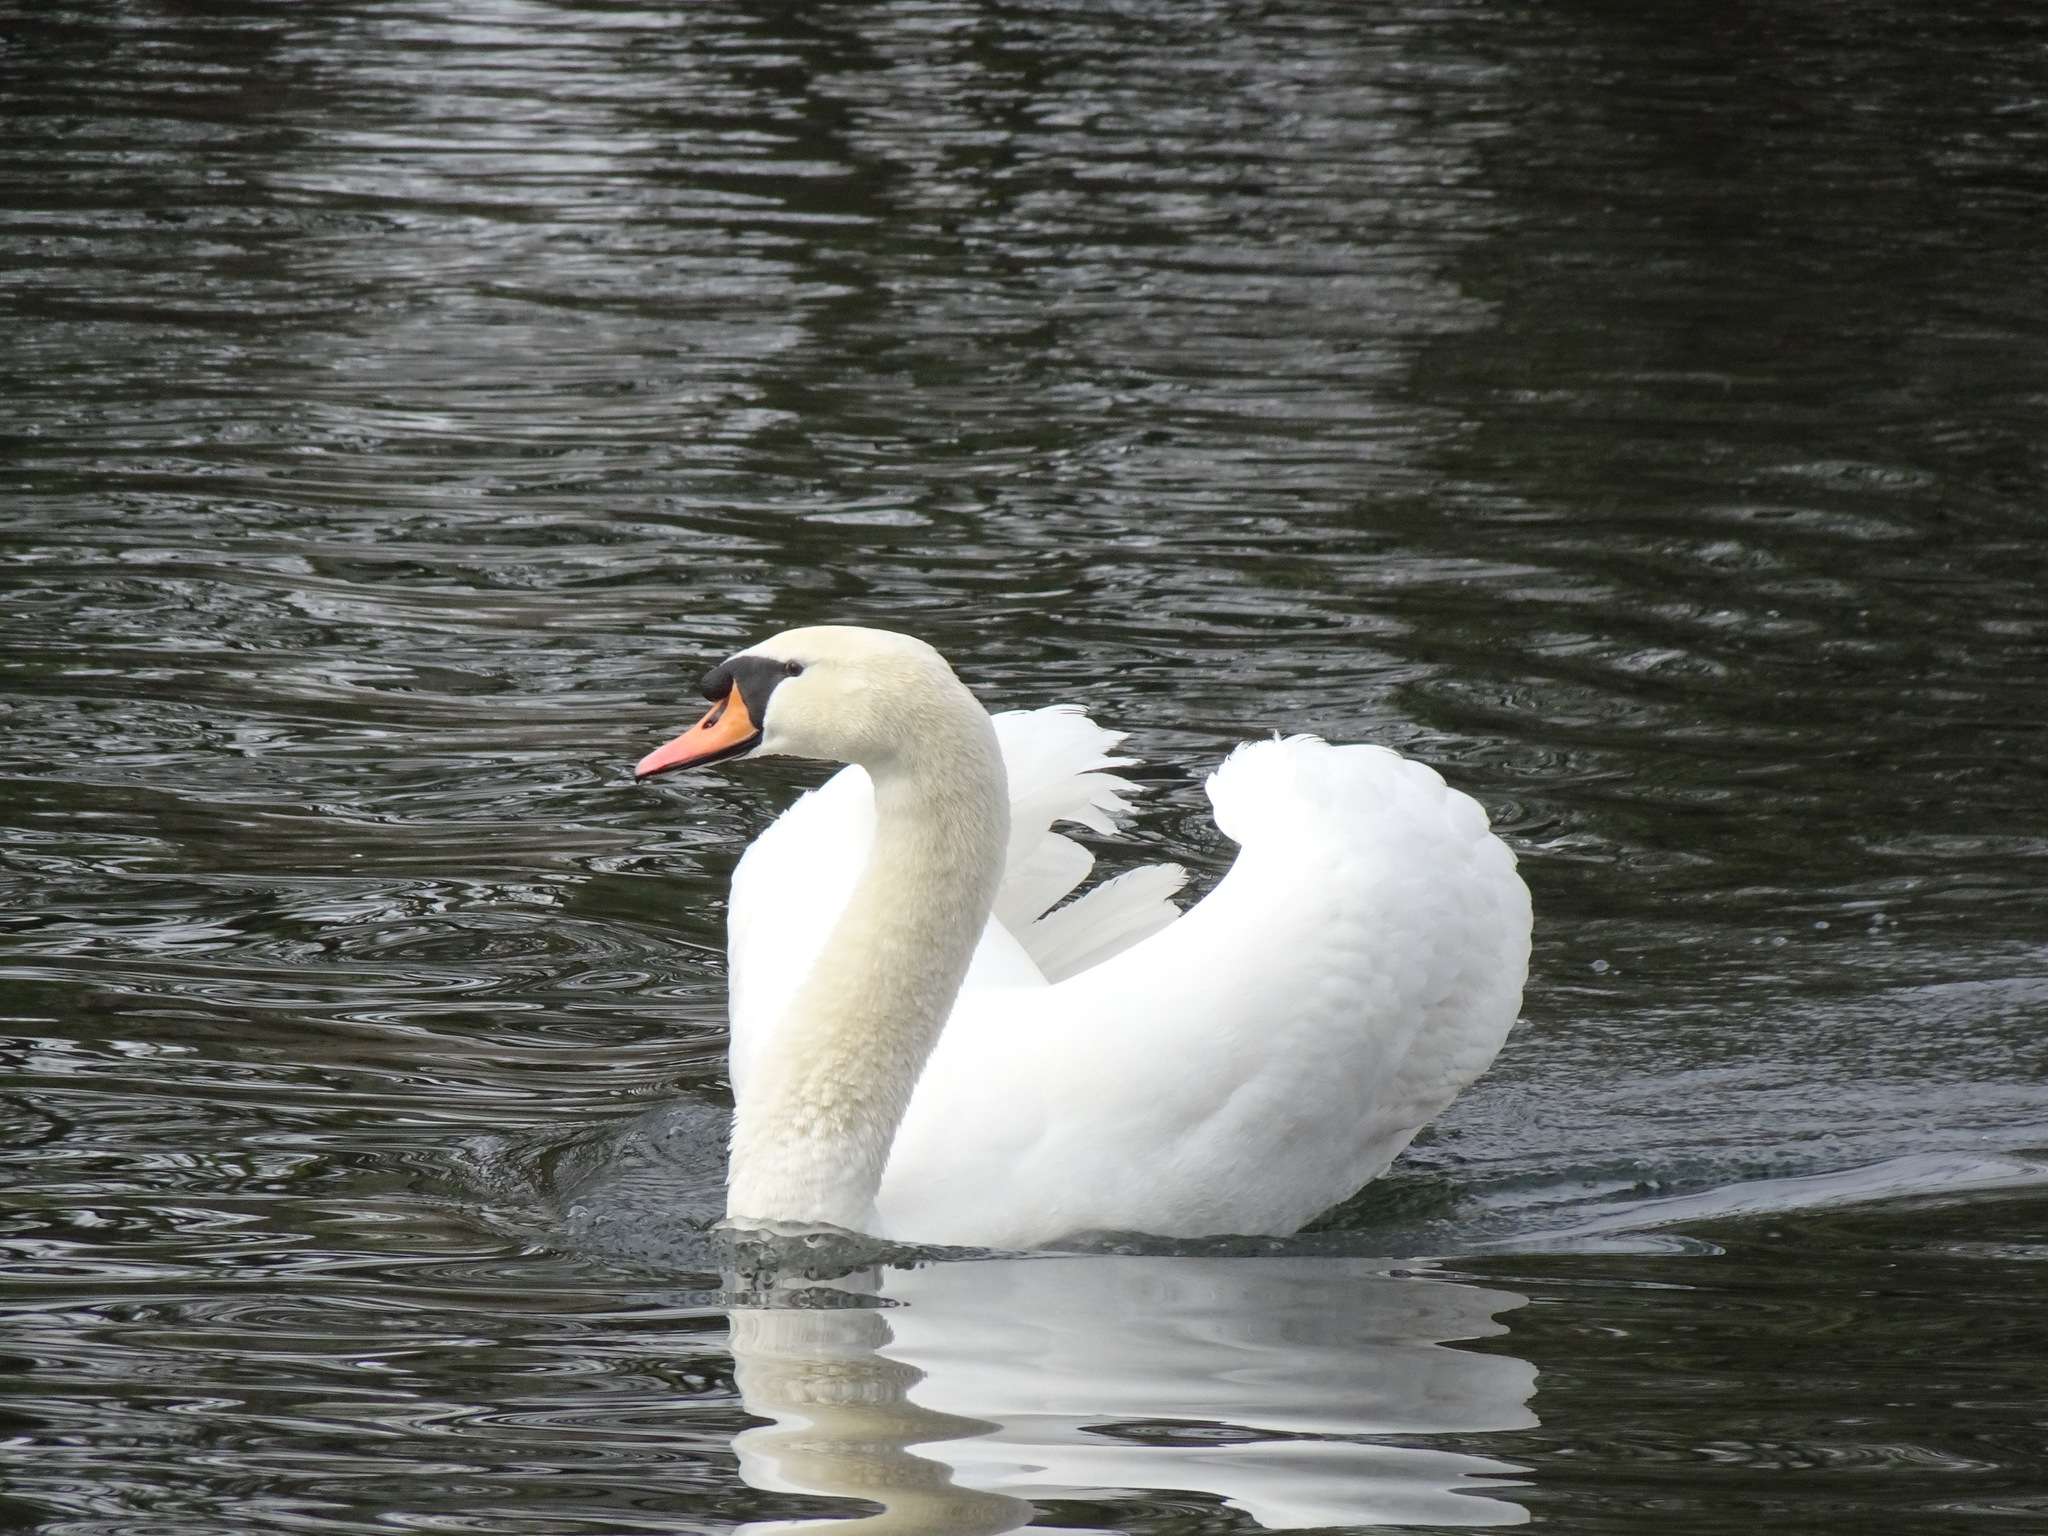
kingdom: Animalia
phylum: Chordata
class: Aves
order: Anseriformes
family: Anatidae
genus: Cygnus
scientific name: Cygnus olor
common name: Mute swan
